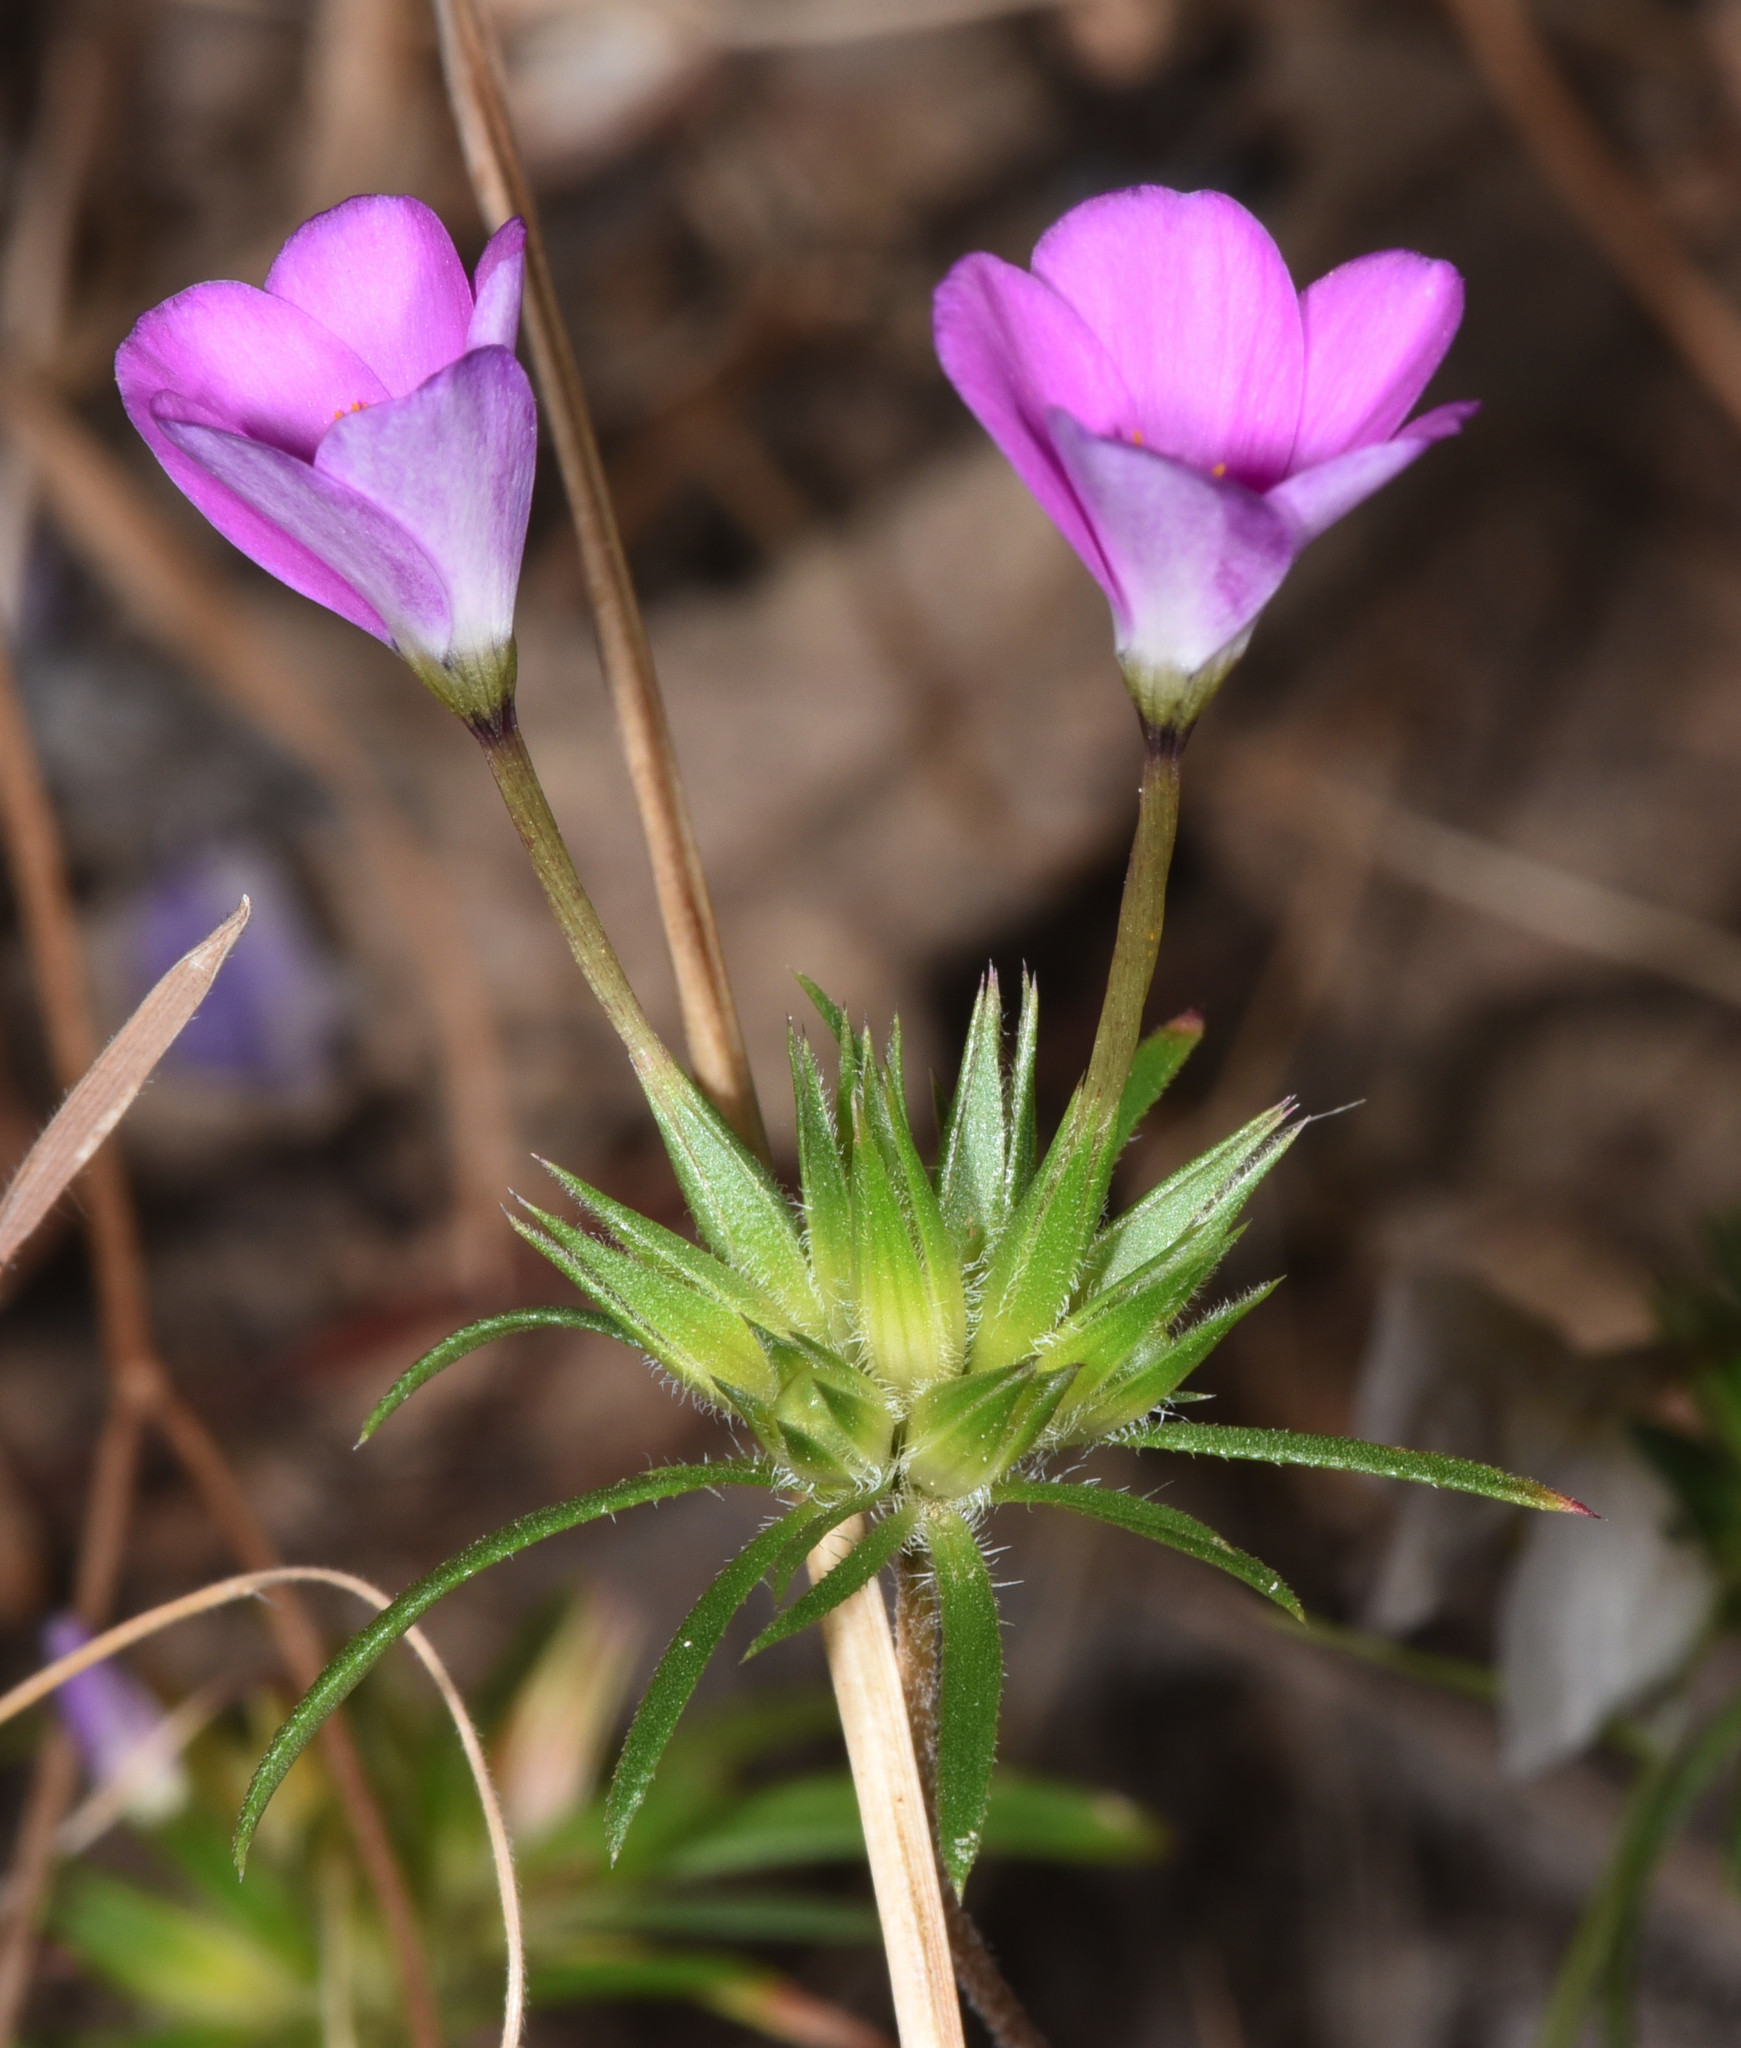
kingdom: Plantae
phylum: Tracheophyta
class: Magnoliopsida
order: Ericales
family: Polemoniaceae
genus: Leptosiphon
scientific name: Leptosiphon androsaceus
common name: False babystars
